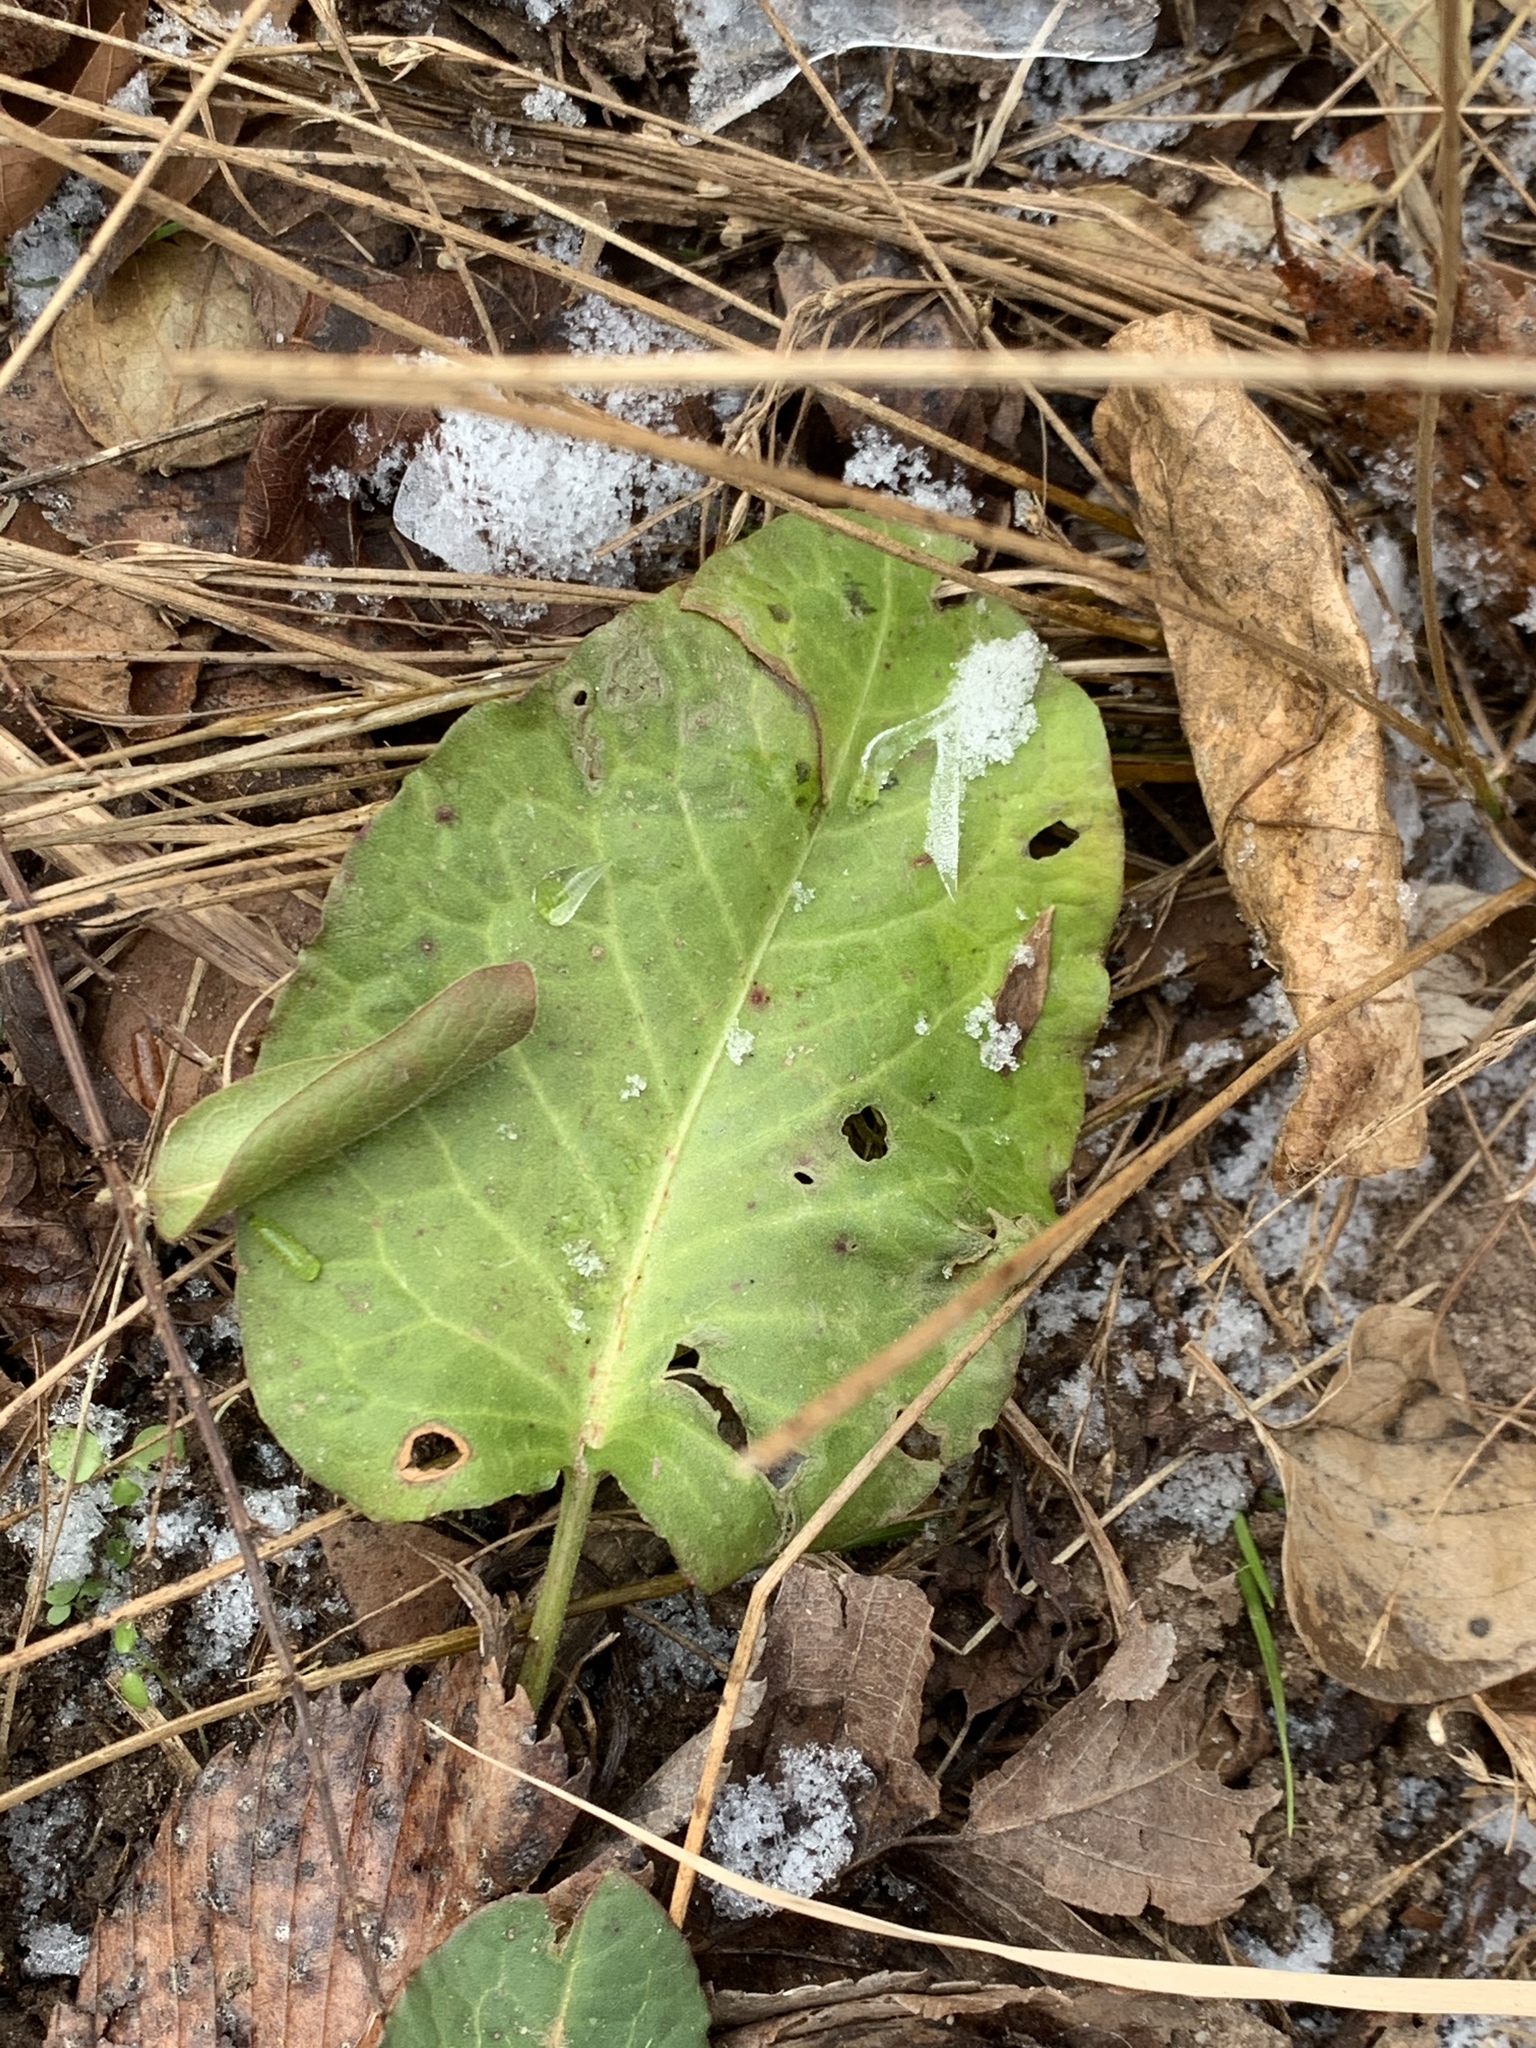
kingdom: Plantae
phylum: Tracheophyta
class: Magnoliopsida
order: Caryophyllales
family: Polygonaceae
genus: Rumex
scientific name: Rumex obtusifolius
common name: Bitter dock
